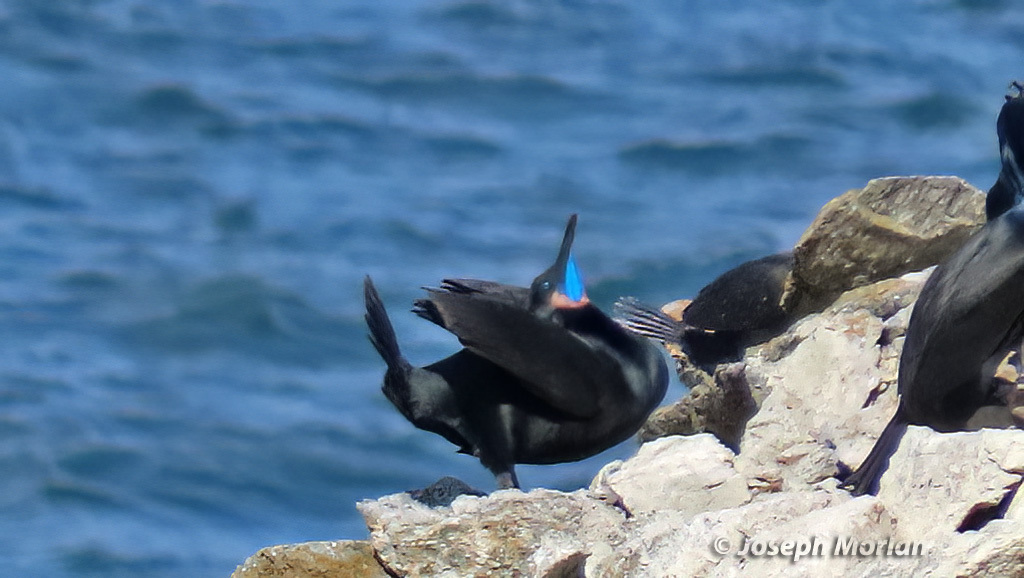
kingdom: Animalia
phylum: Chordata
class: Aves
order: Suliformes
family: Phalacrocoracidae
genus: Urile
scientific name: Urile penicillatus
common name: Brandt's cormorant
